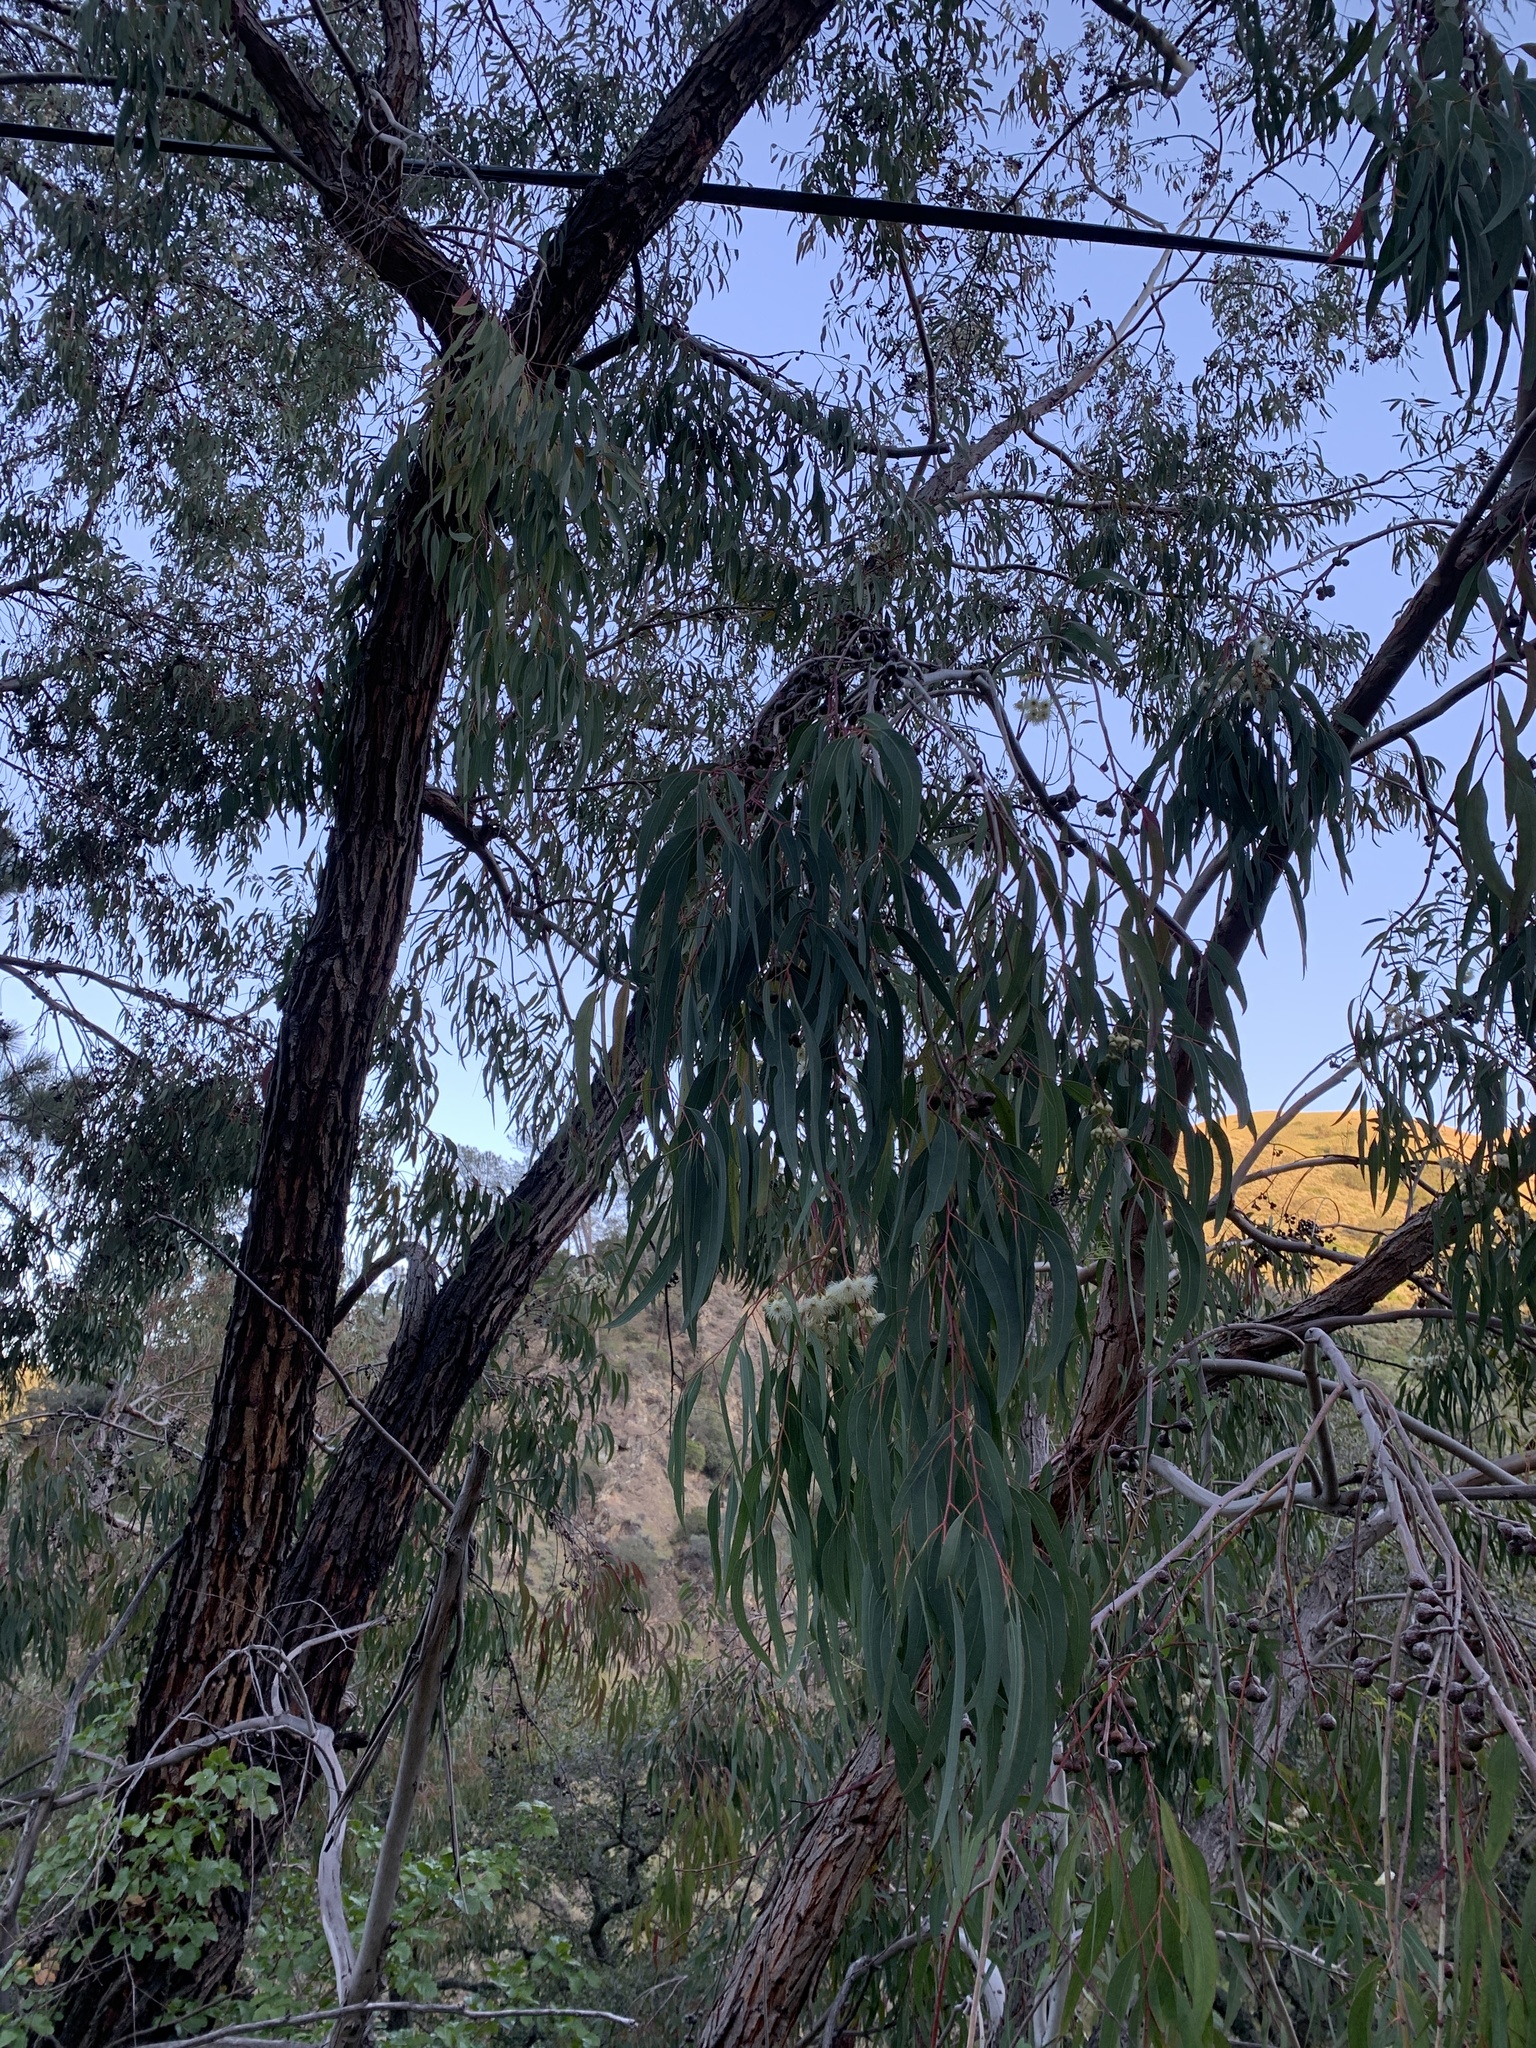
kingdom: Plantae
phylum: Tracheophyta
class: Magnoliopsida
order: Myrtales
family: Myrtaceae
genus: Eucalyptus
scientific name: Eucalyptus sideroxylon
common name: Red ironbark
